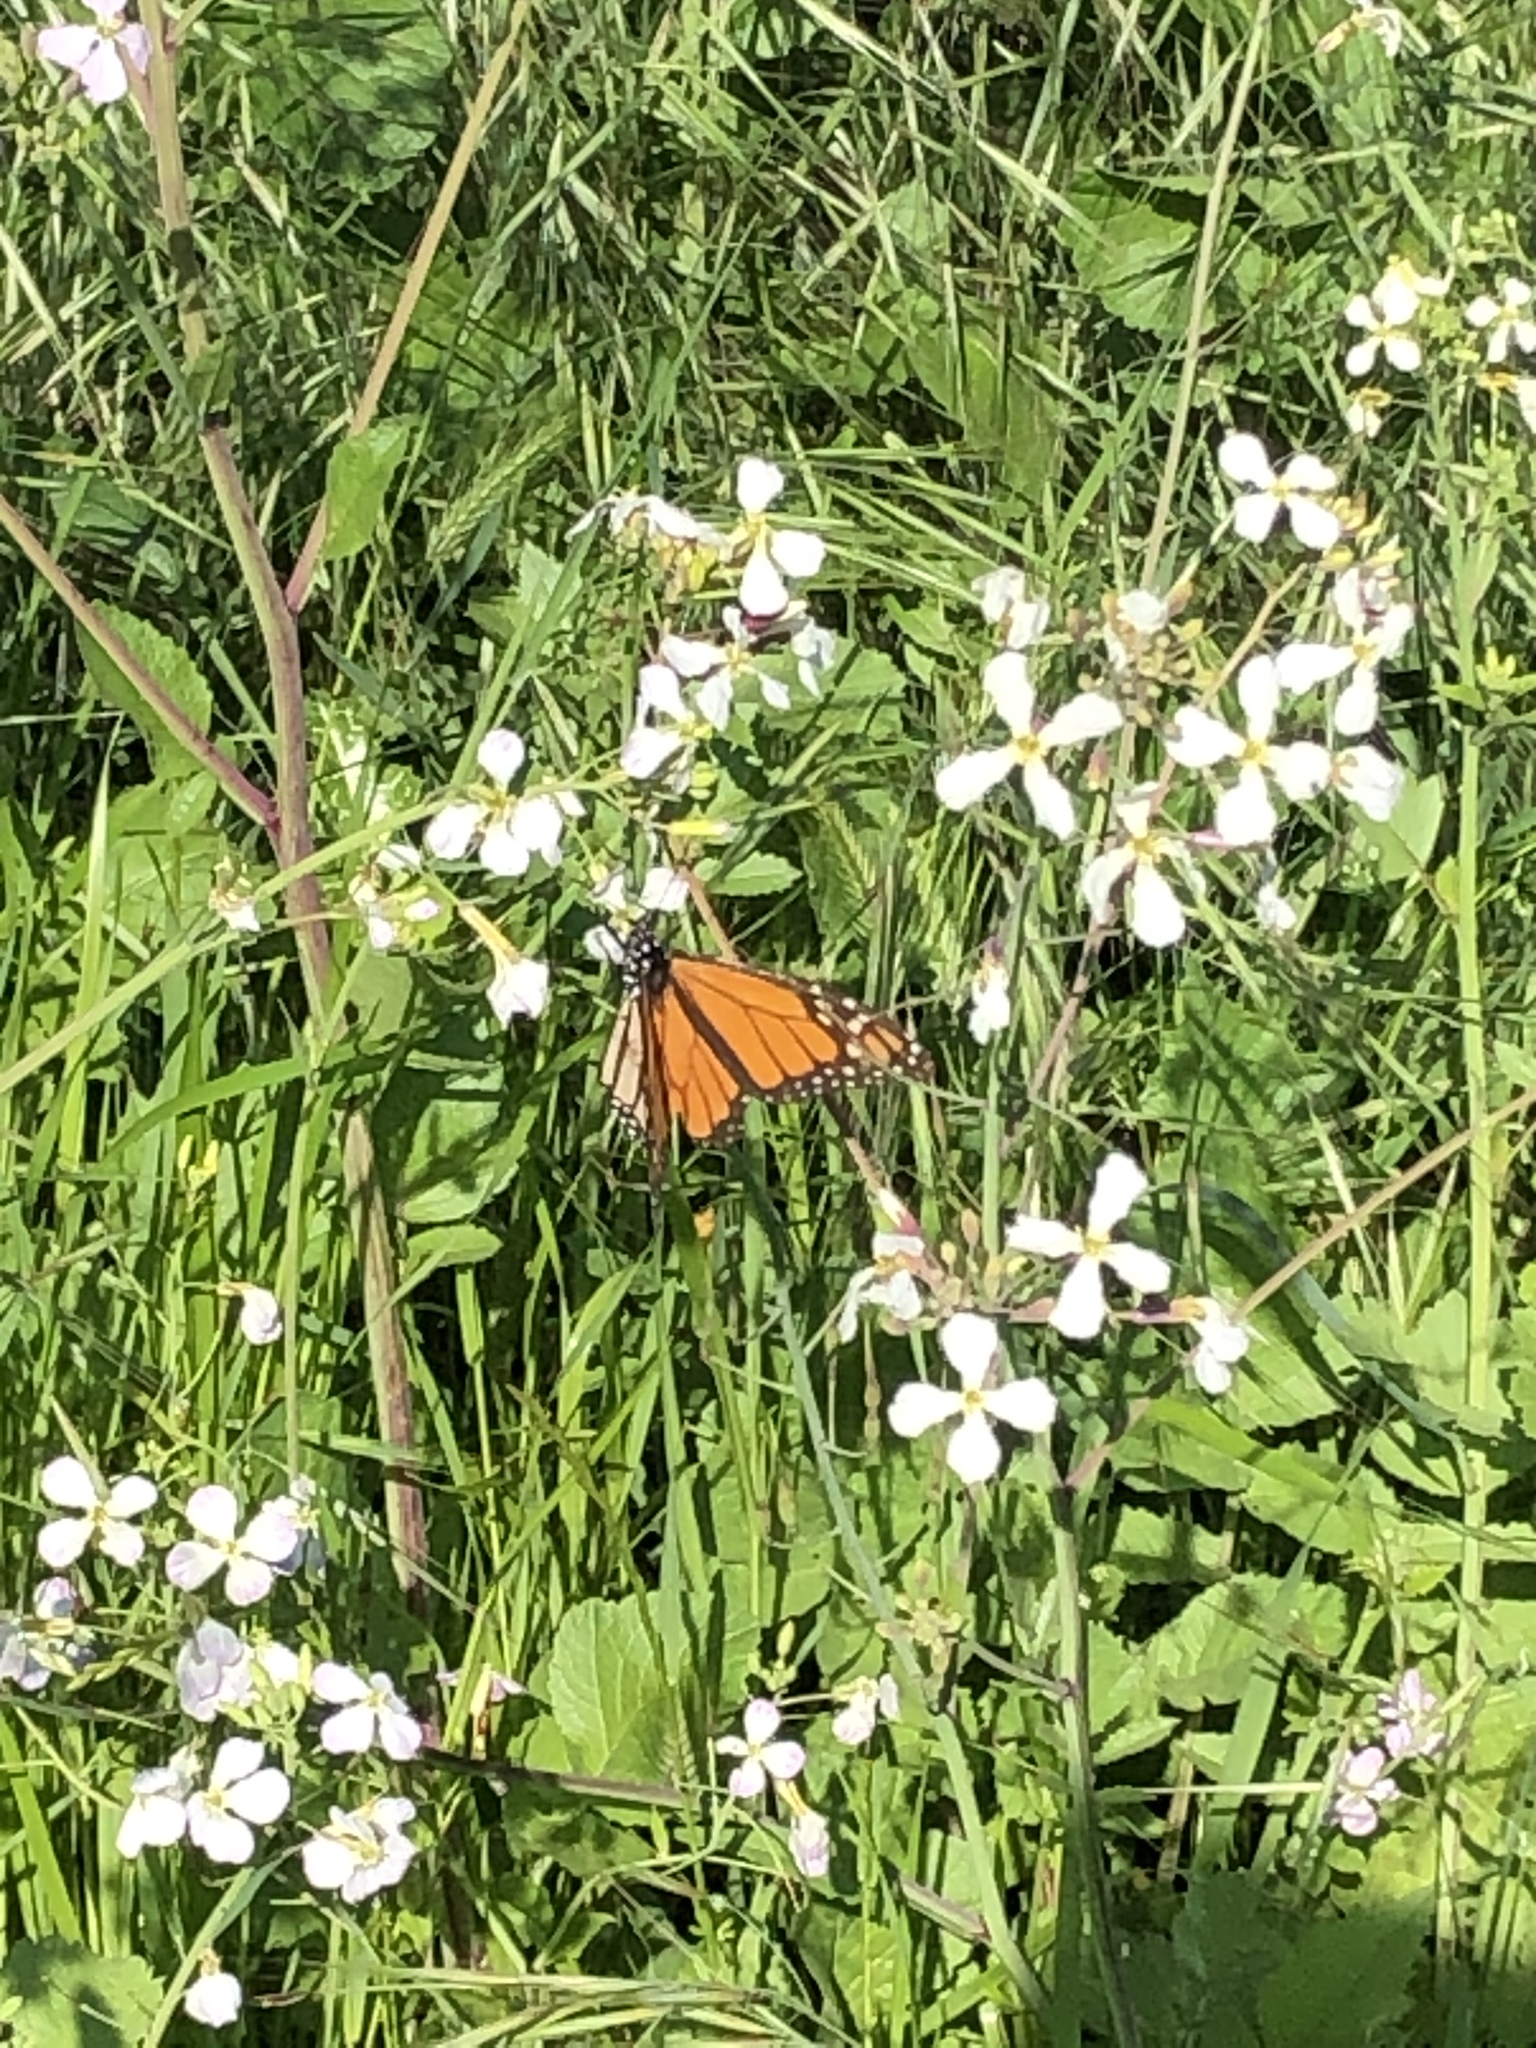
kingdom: Animalia
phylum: Arthropoda
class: Insecta
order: Lepidoptera
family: Nymphalidae
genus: Danaus
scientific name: Danaus plexippus
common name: Monarch
